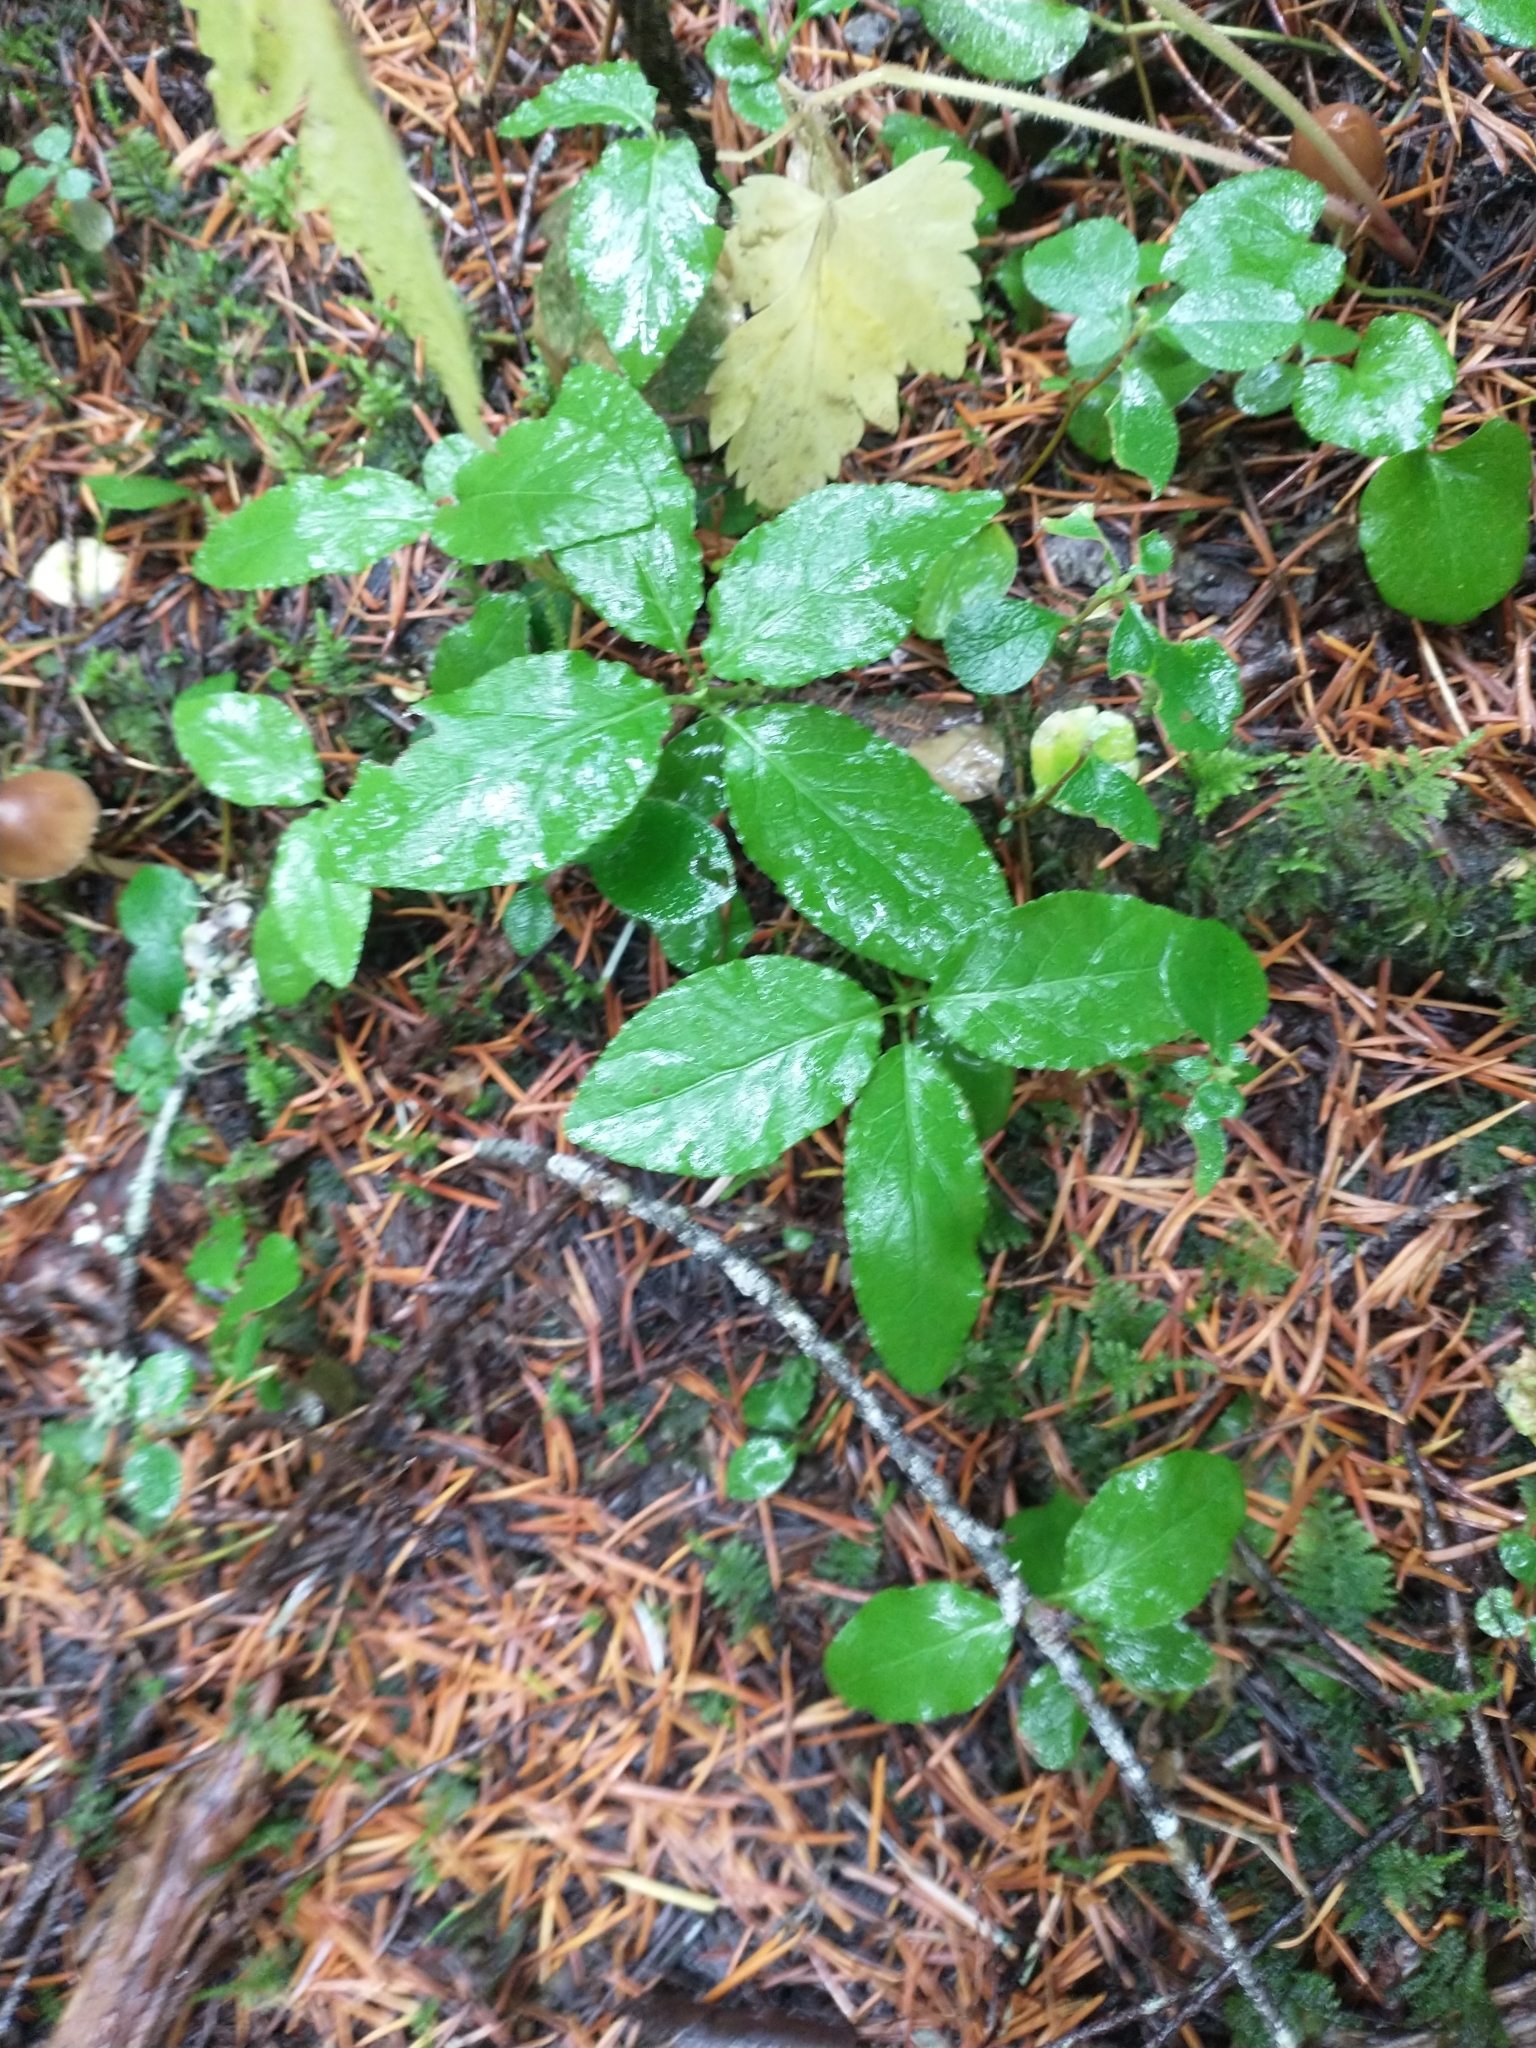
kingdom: Plantae
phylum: Tracheophyta
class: Magnoliopsida
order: Ericales
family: Ericaceae
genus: Orthilia
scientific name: Orthilia secunda
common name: One-sided orthilia
